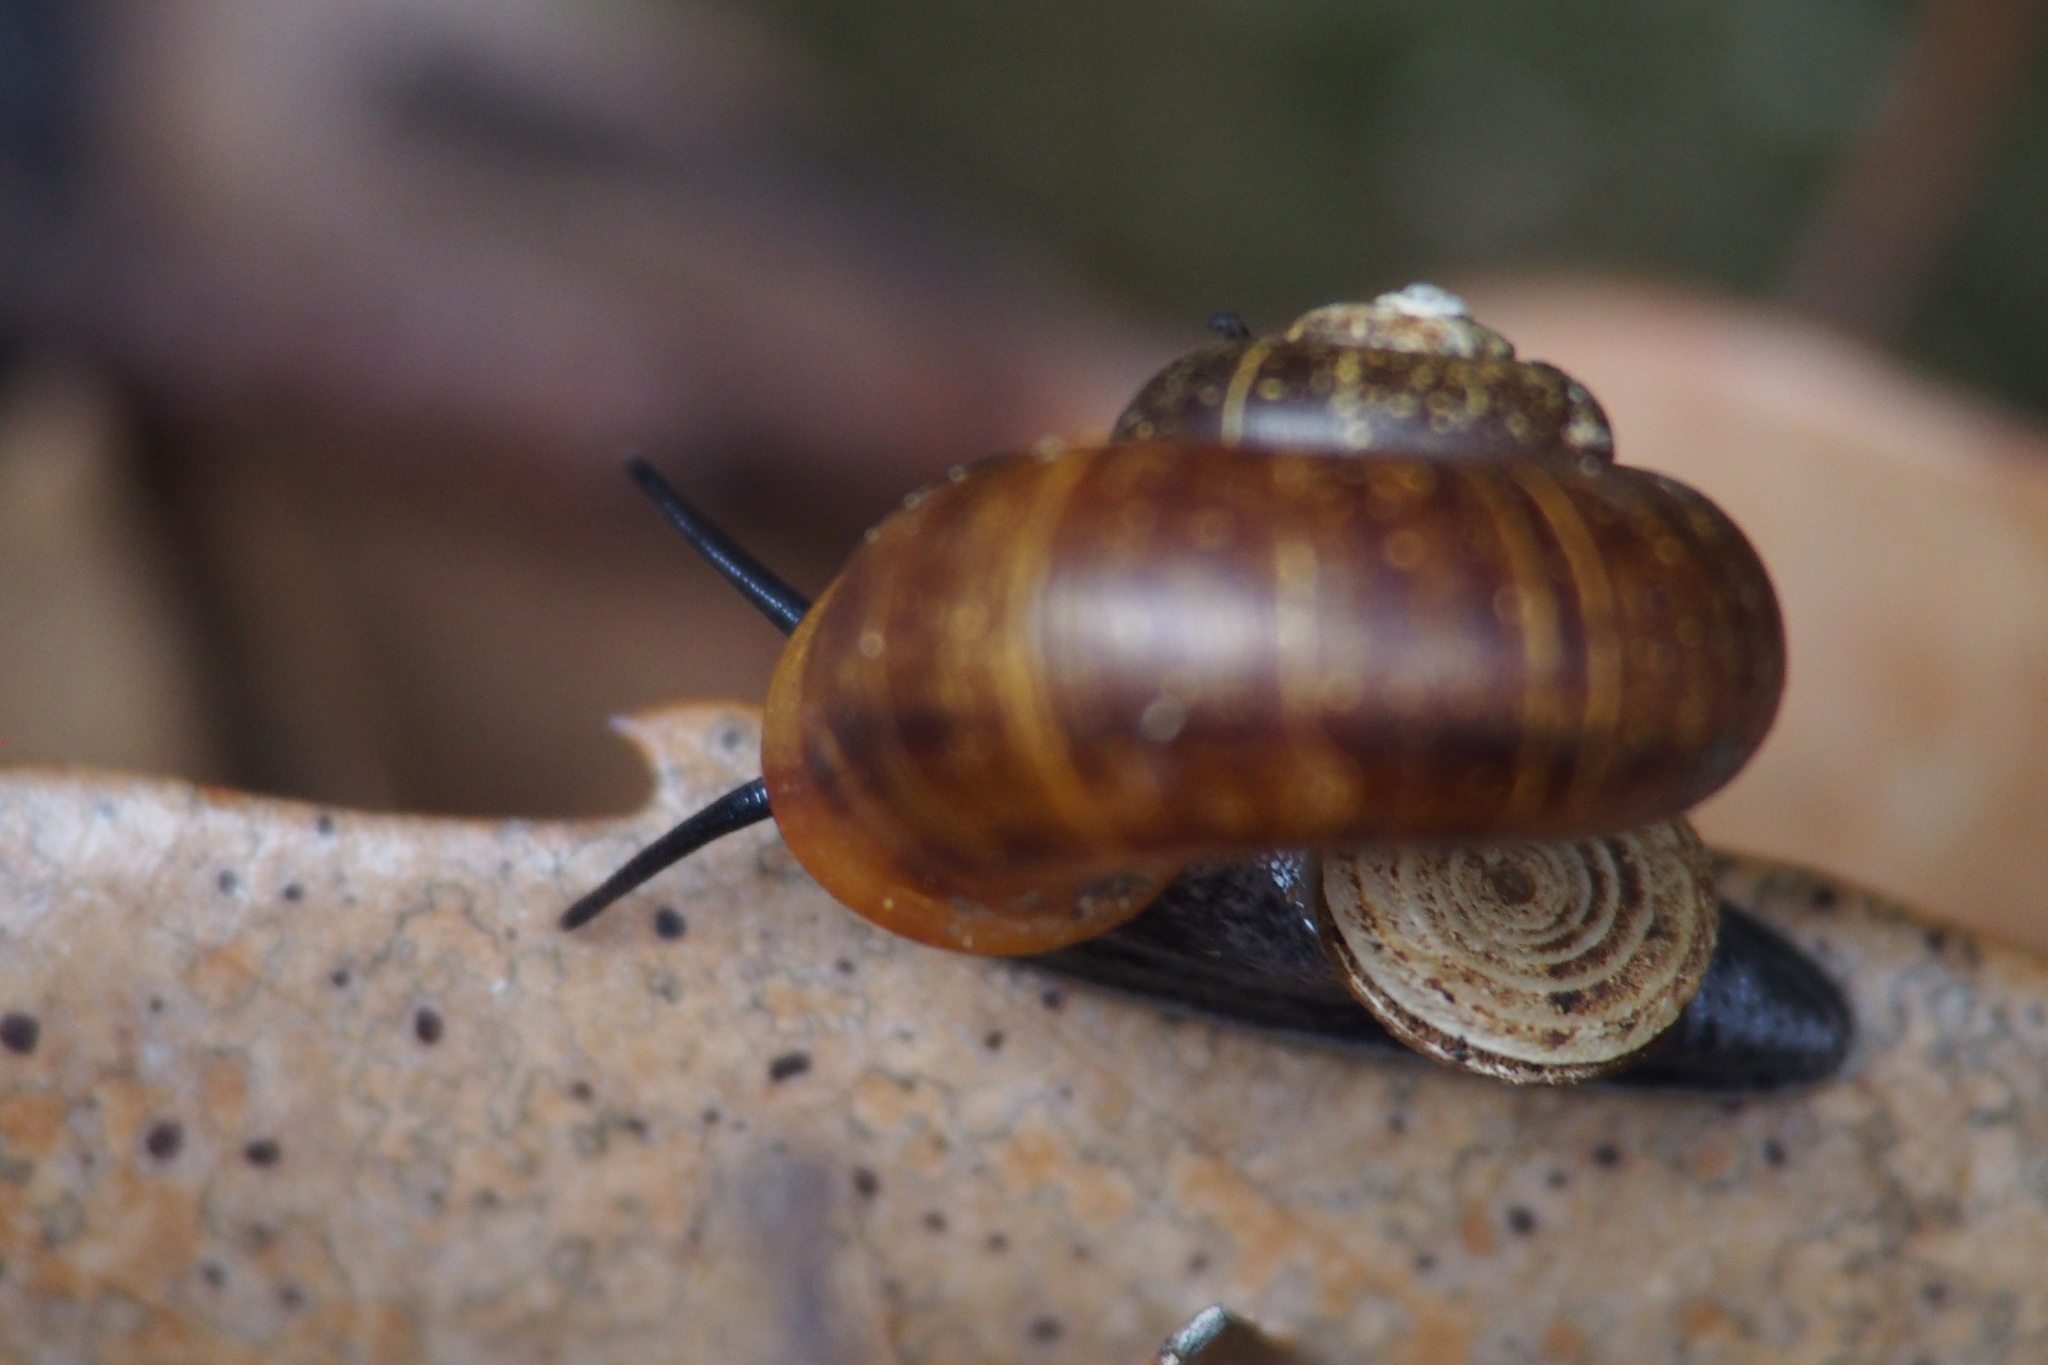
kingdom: Animalia
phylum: Mollusca
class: Gastropoda
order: Architaenioglossa
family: Cyclophoridae
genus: Cyclotus
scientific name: Cyclotus campanulatus
